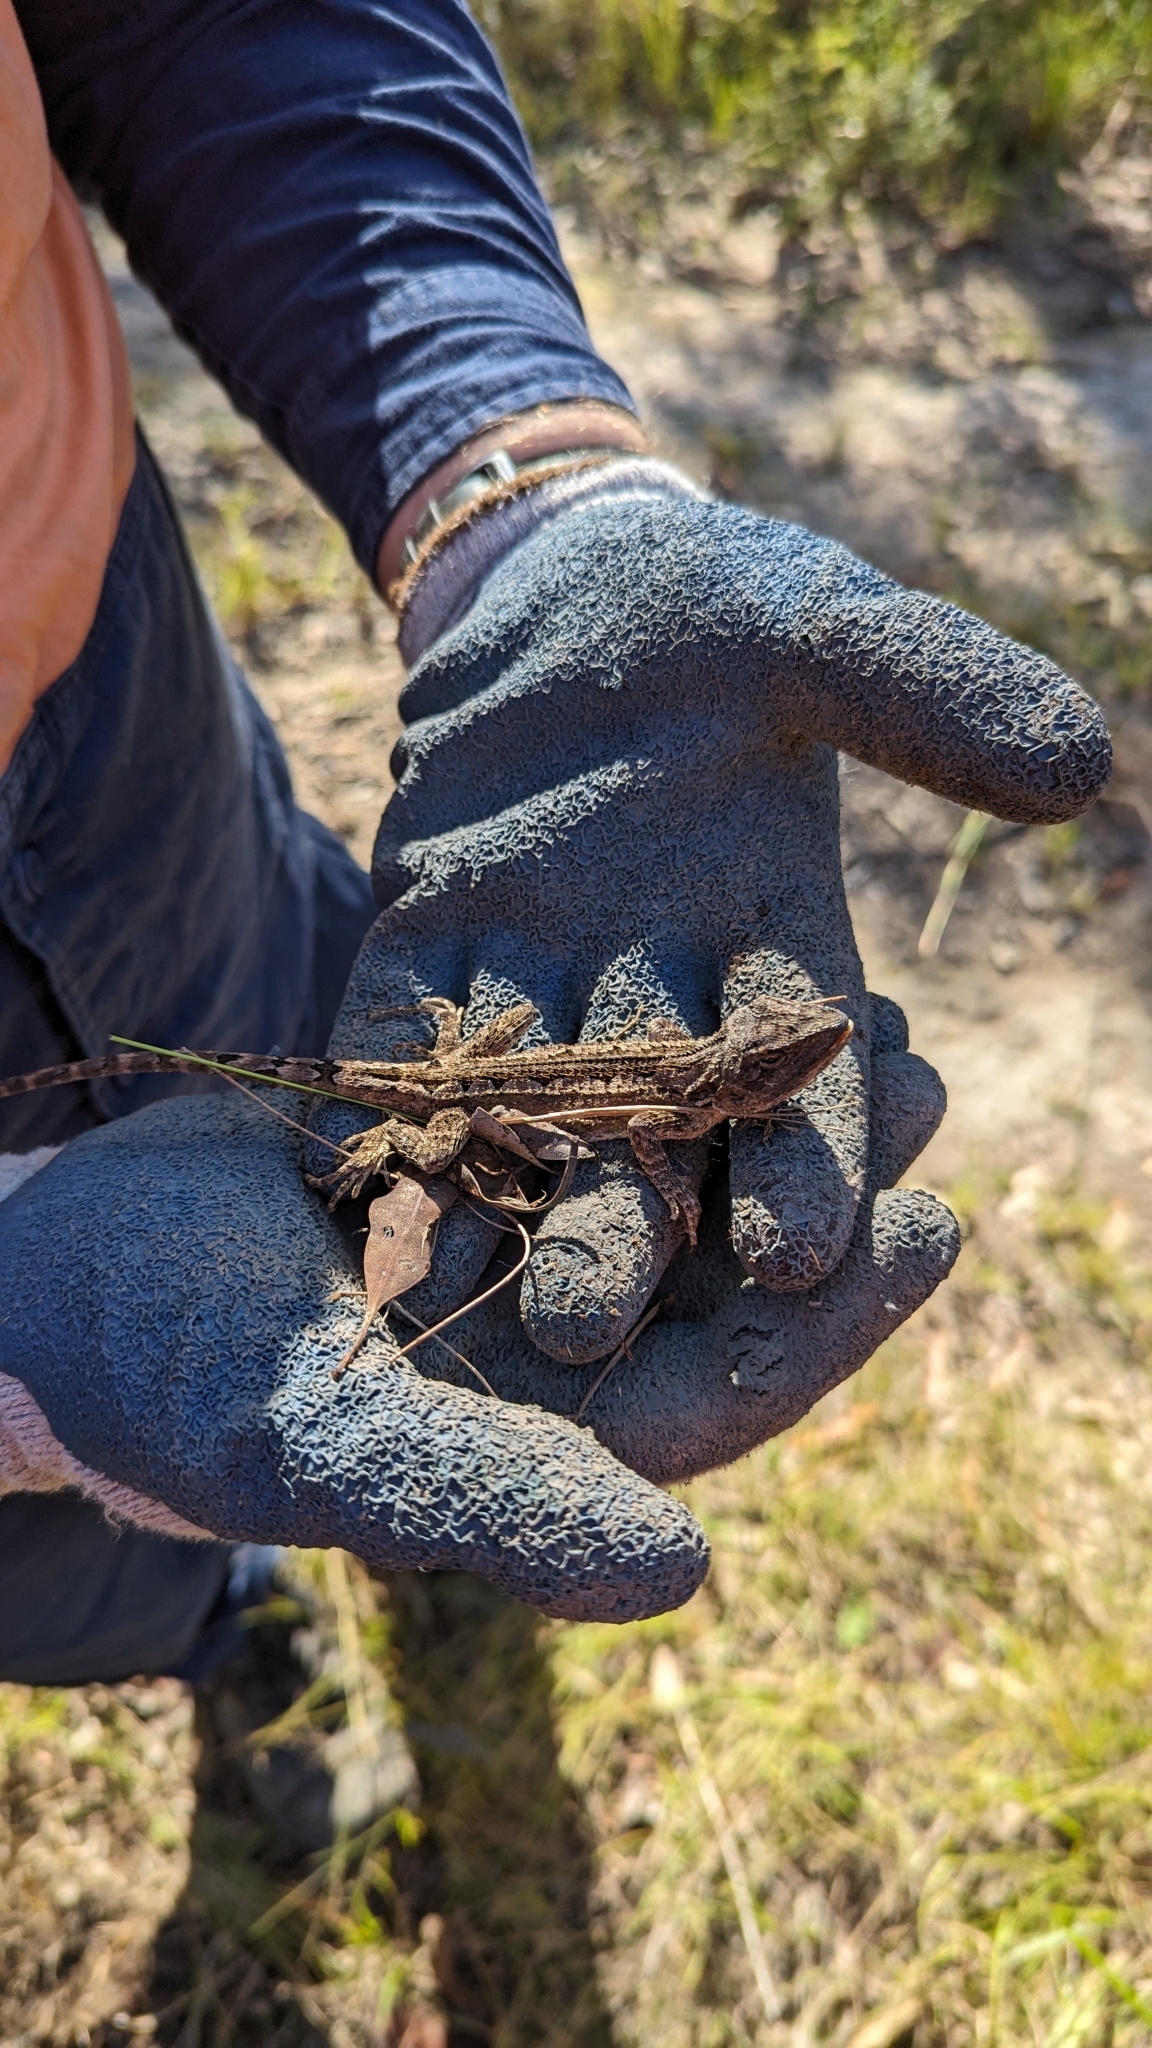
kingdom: Animalia
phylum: Chordata
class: Squamata
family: Agamidae
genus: Amphibolurus
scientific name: Amphibolurus muricatus
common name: Jacky lizard
